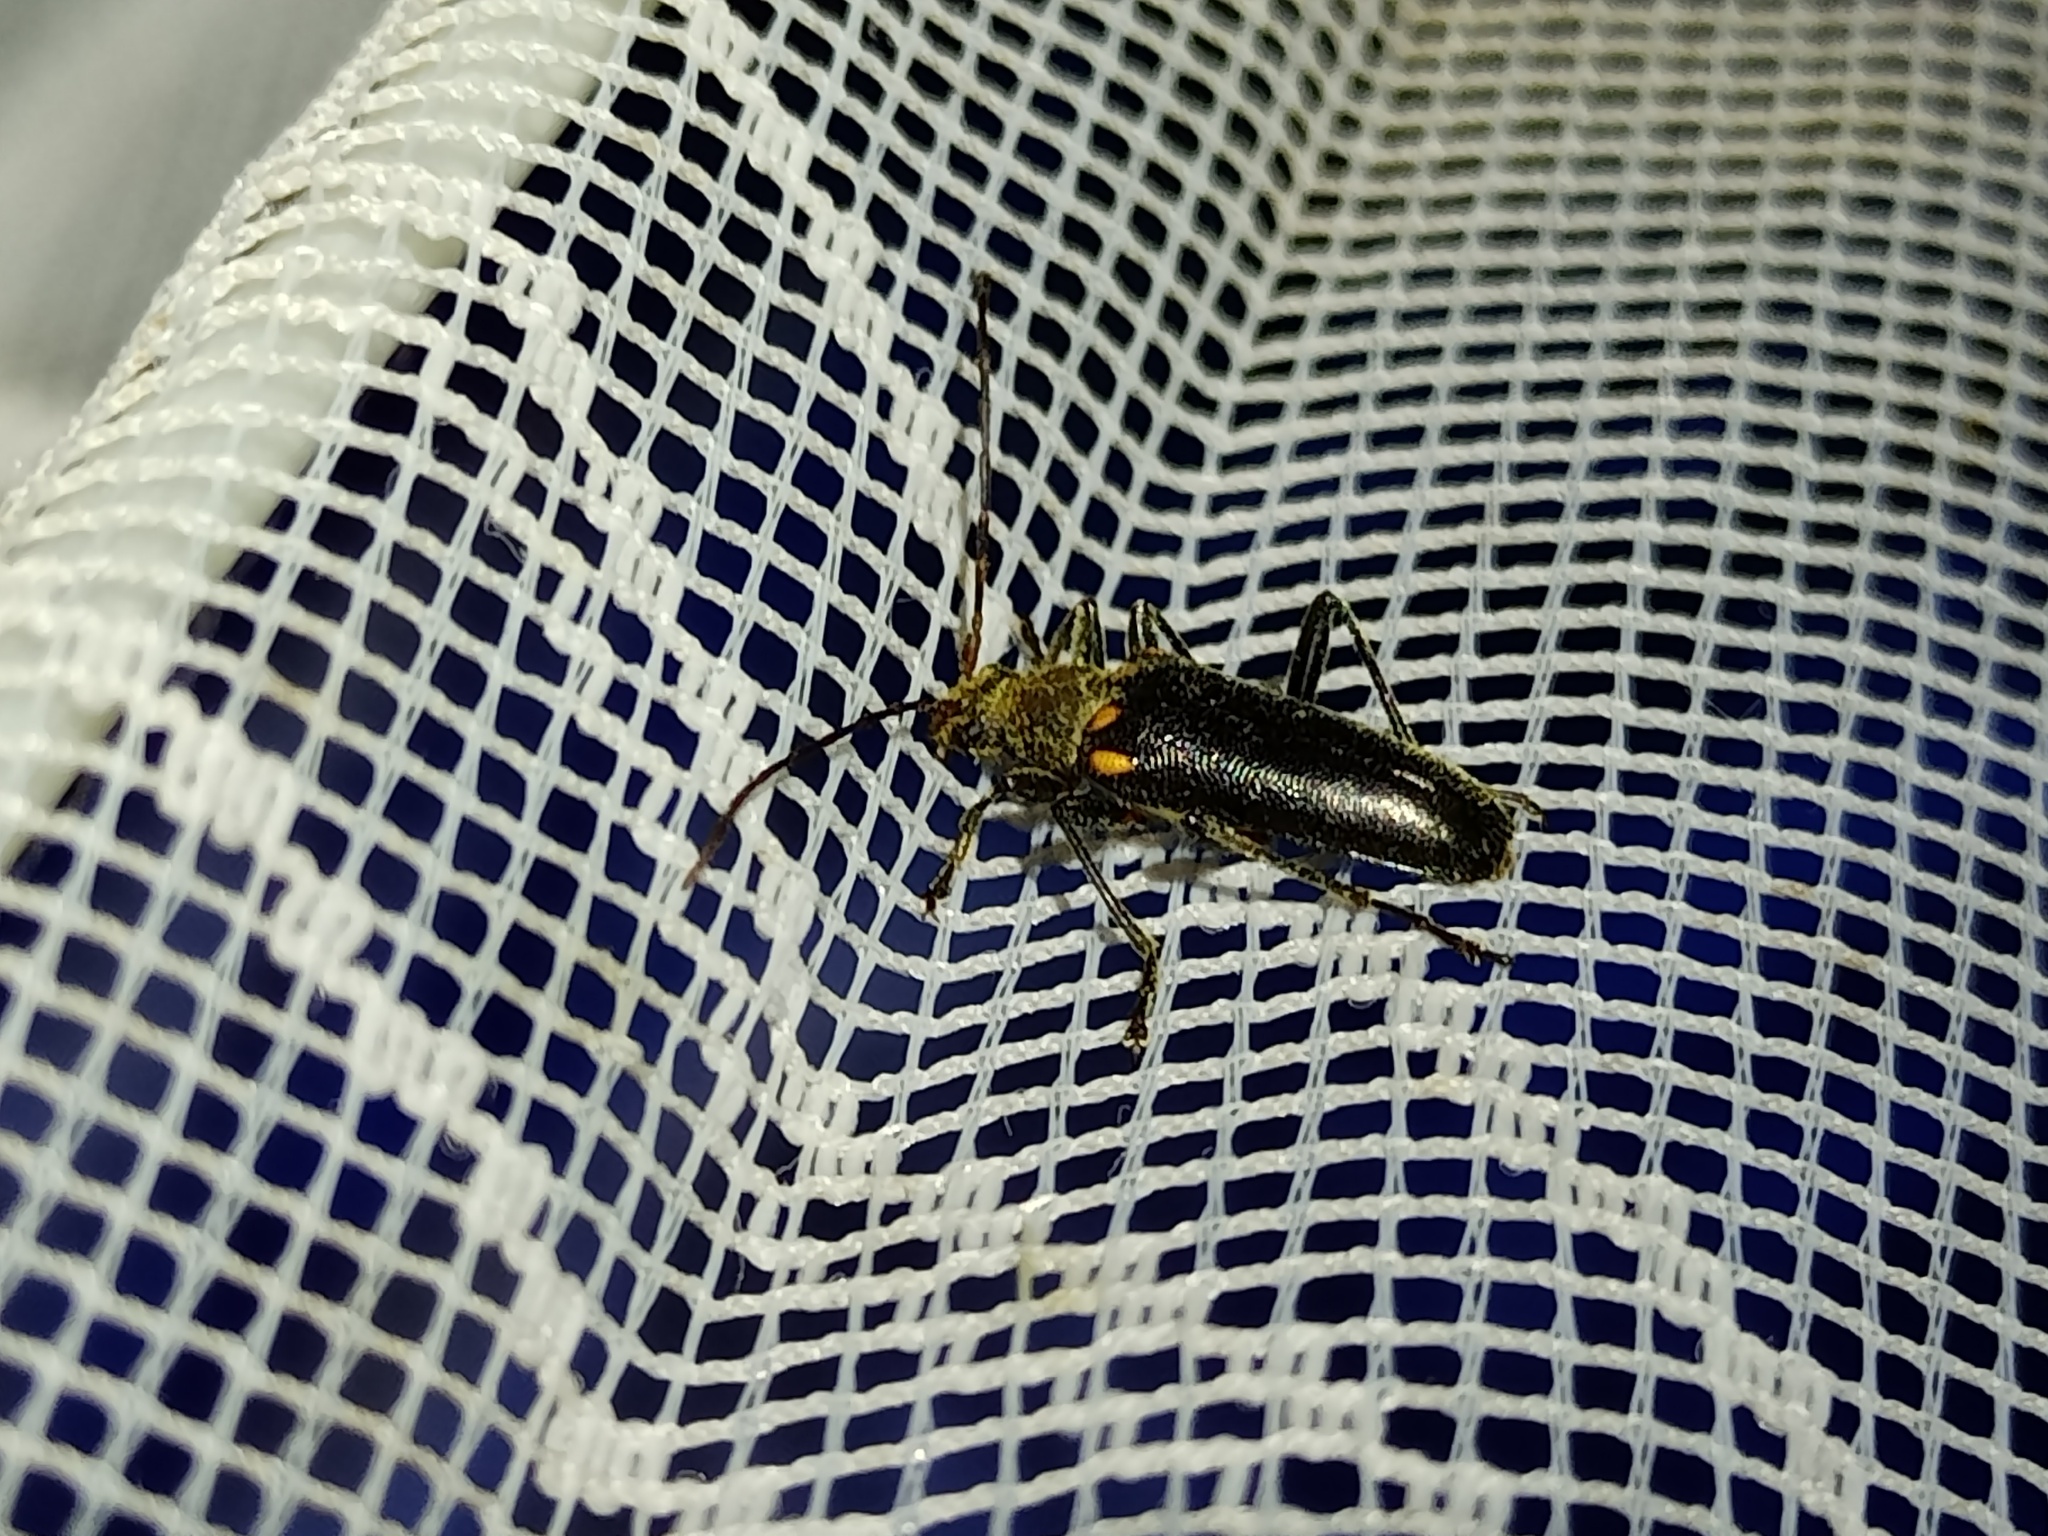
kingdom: Animalia
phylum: Arthropoda
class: Insecta
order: Coleoptera
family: Cerambycidae
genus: Cortodera
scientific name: Cortodera humeralis
